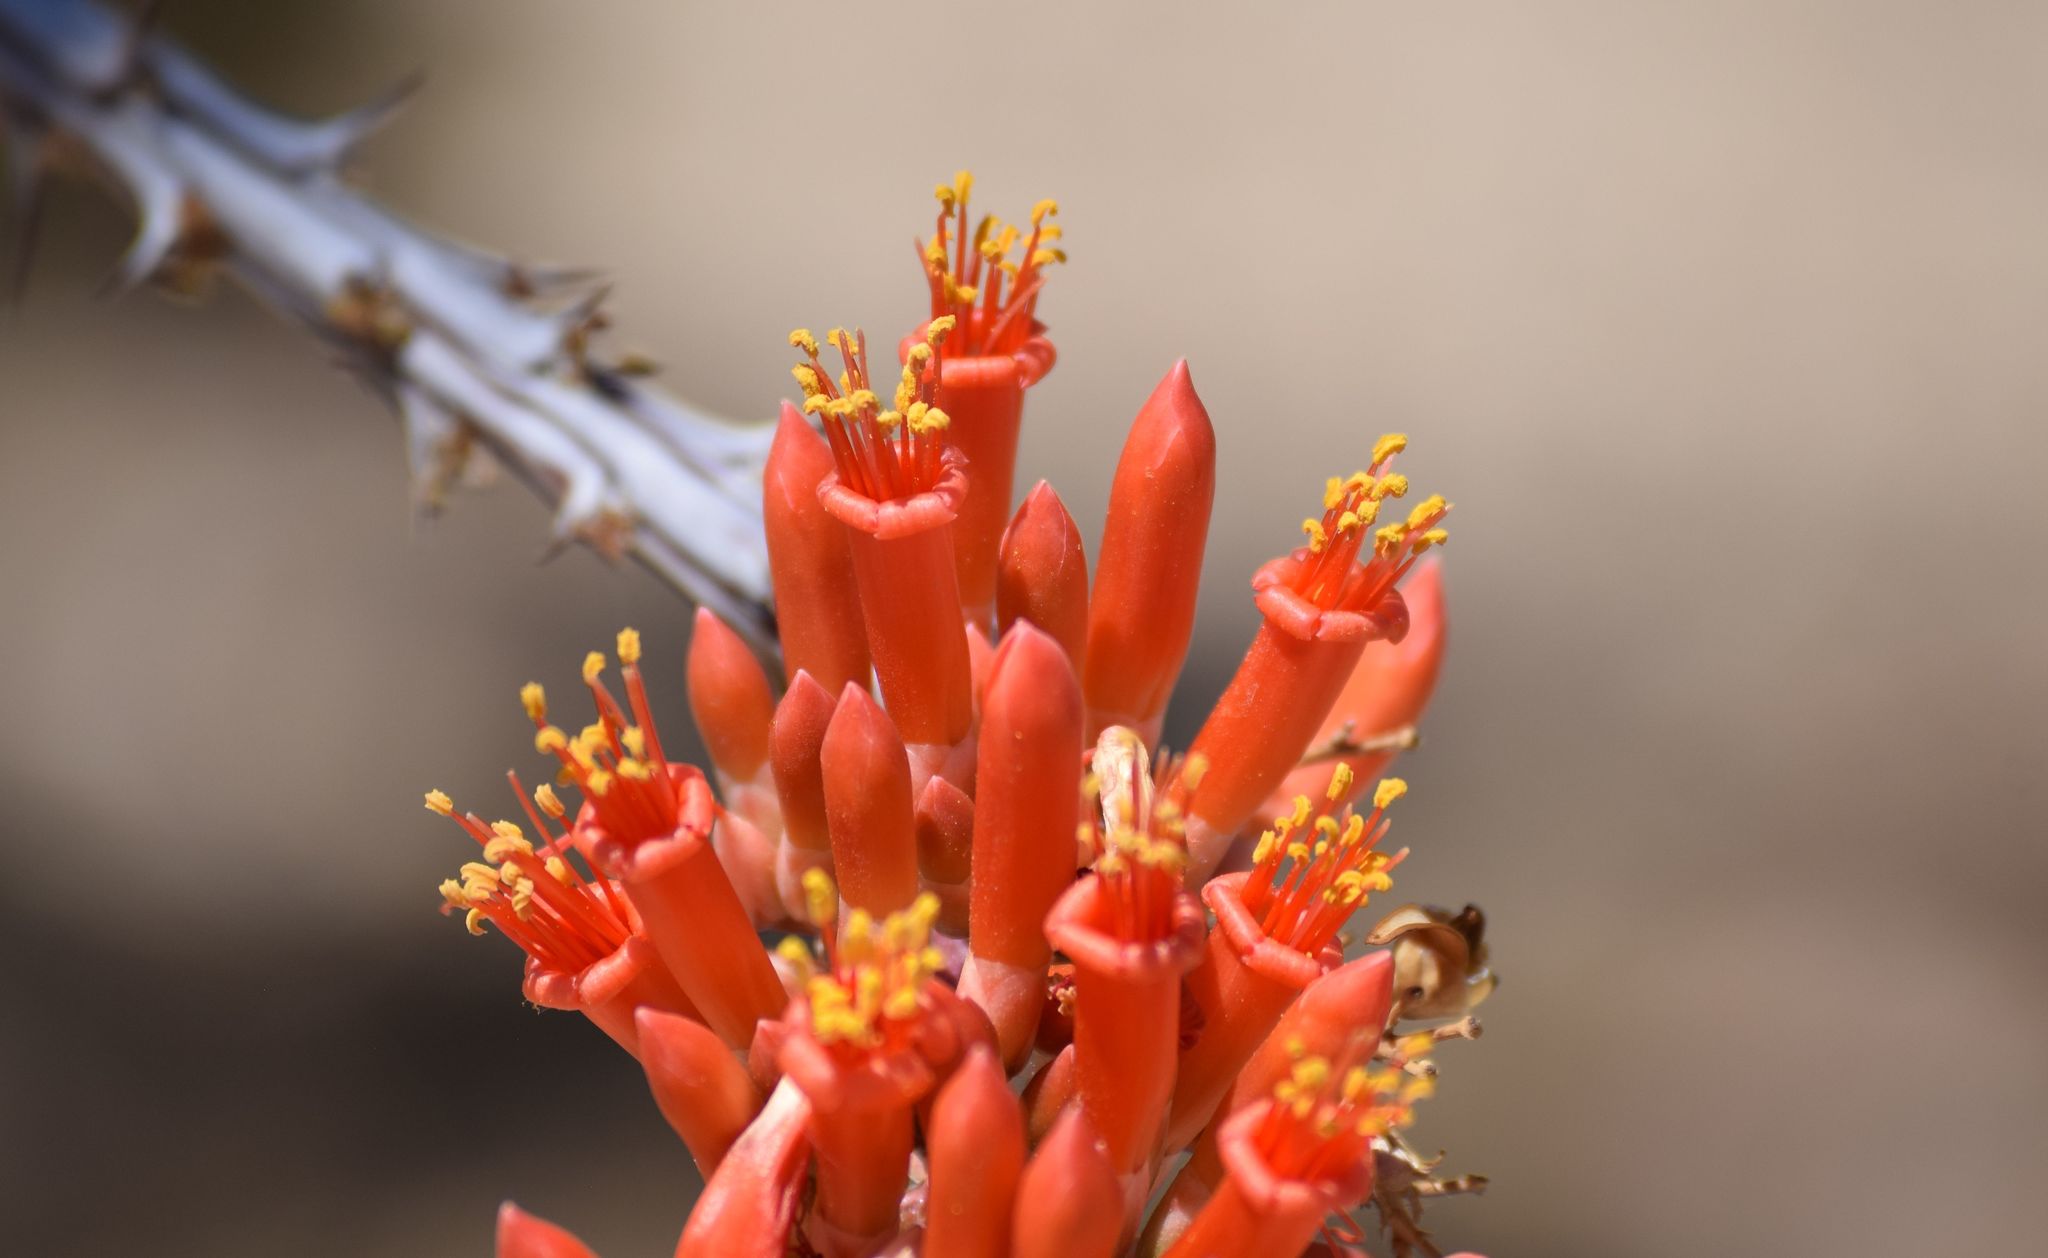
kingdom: Plantae
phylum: Tracheophyta
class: Magnoliopsida
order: Ericales
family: Fouquieriaceae
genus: Fouquieria
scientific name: Fouquieria splendens
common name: Vine-cactus
